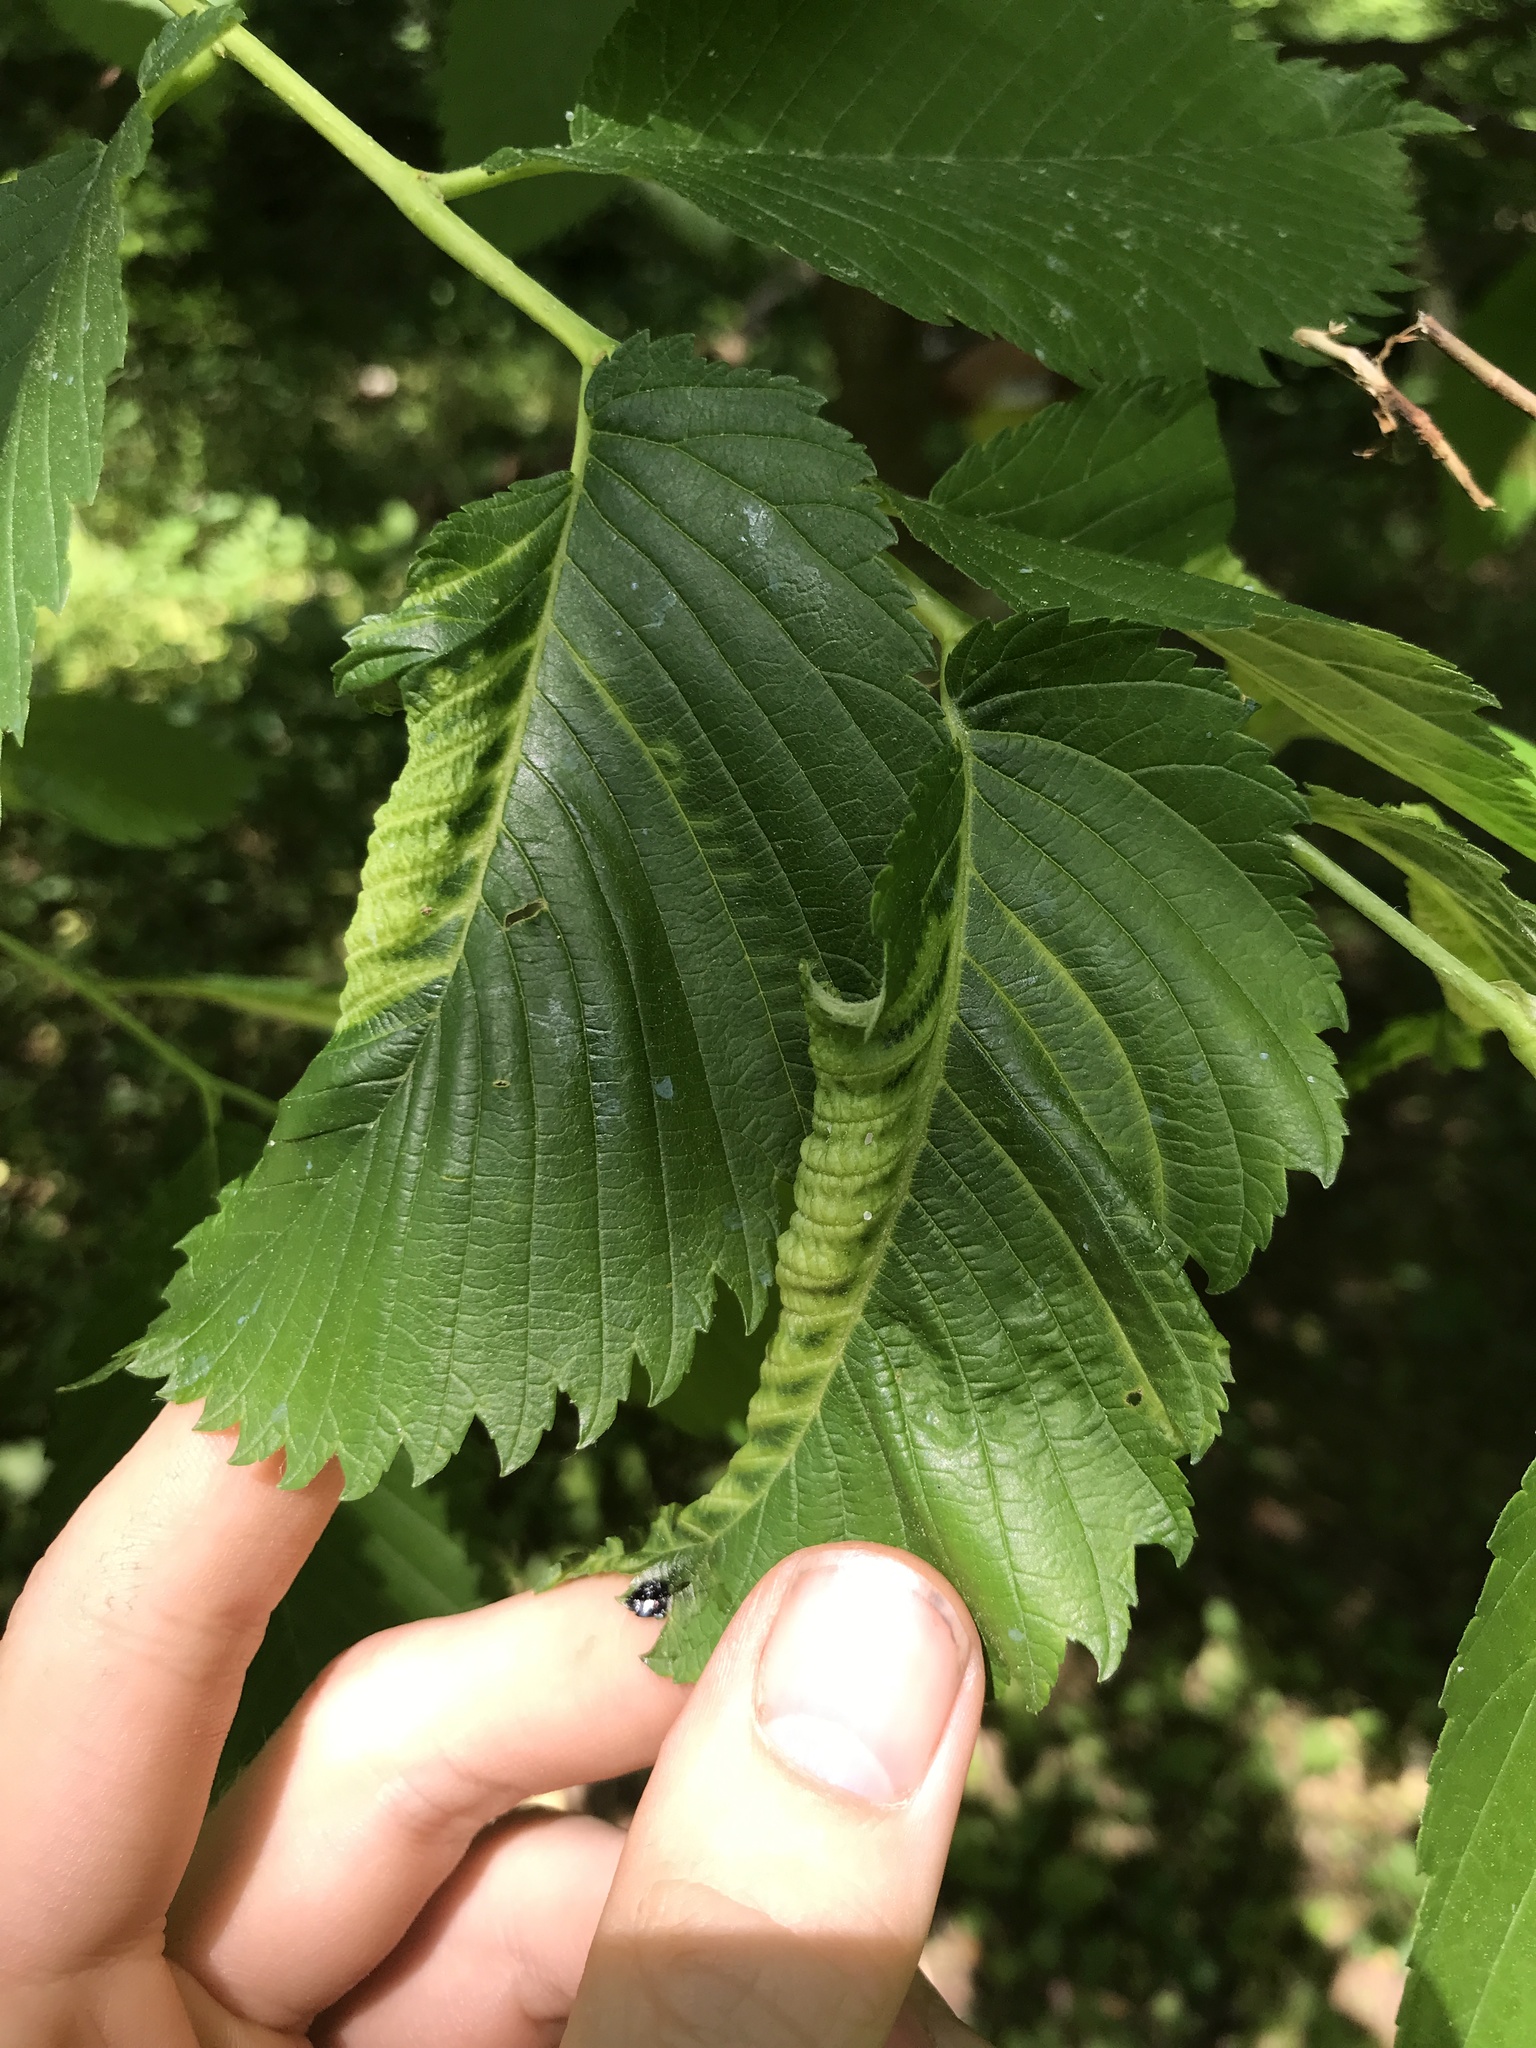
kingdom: Animalia
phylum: Arthropoda
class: Insecta
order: Hemiptera
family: Aphididae
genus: Eriosoma
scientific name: Eriosoma americanum
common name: Woolly elm aphid
